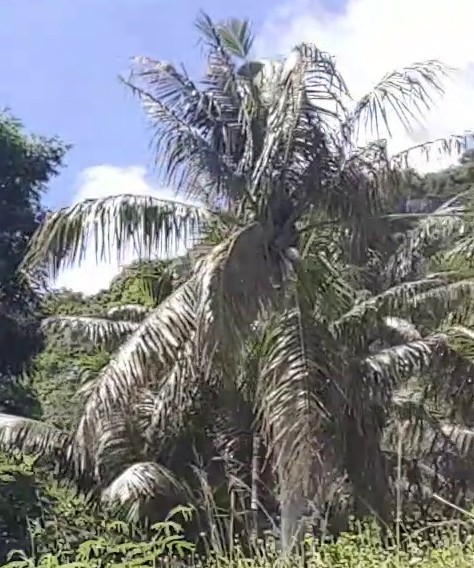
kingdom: Plantae
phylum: Tracheophyta
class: Liliopsida
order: Arecales
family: Arecaceae
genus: Cocos
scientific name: Cocos nucifera
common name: Coconut palm
